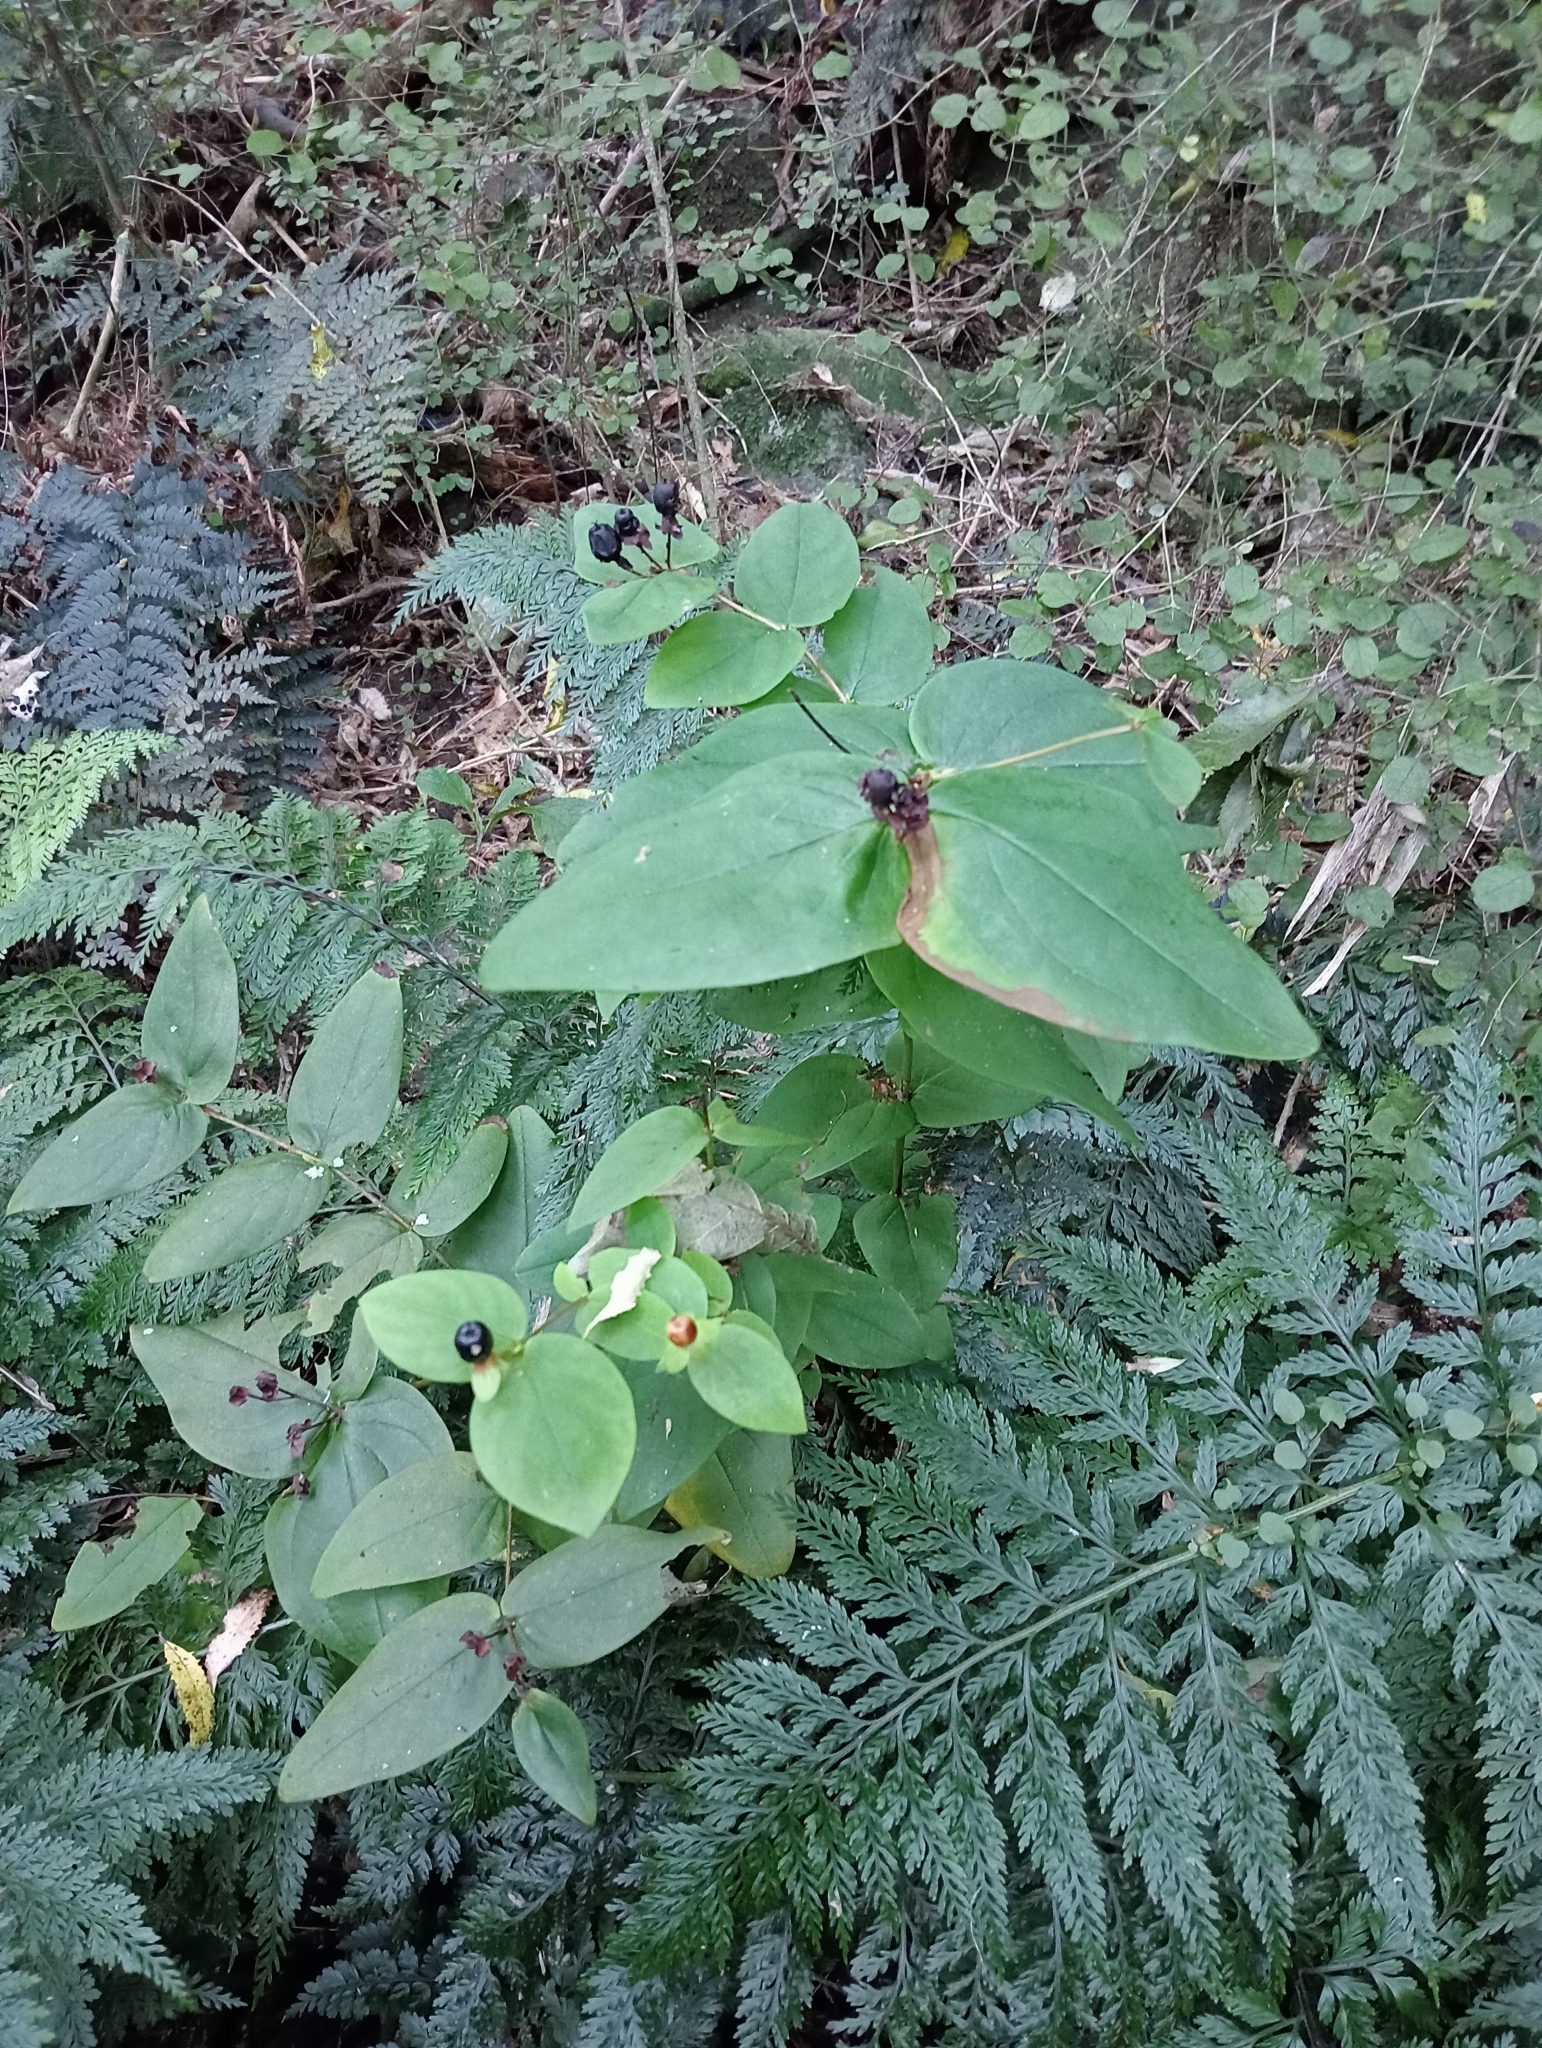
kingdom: Plantae
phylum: Tracheophyta
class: Magnoliopsida
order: Malpighiales
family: Hypericaceae
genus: Hypericum
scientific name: Hypericum androsaemum
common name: Sweet-amber
